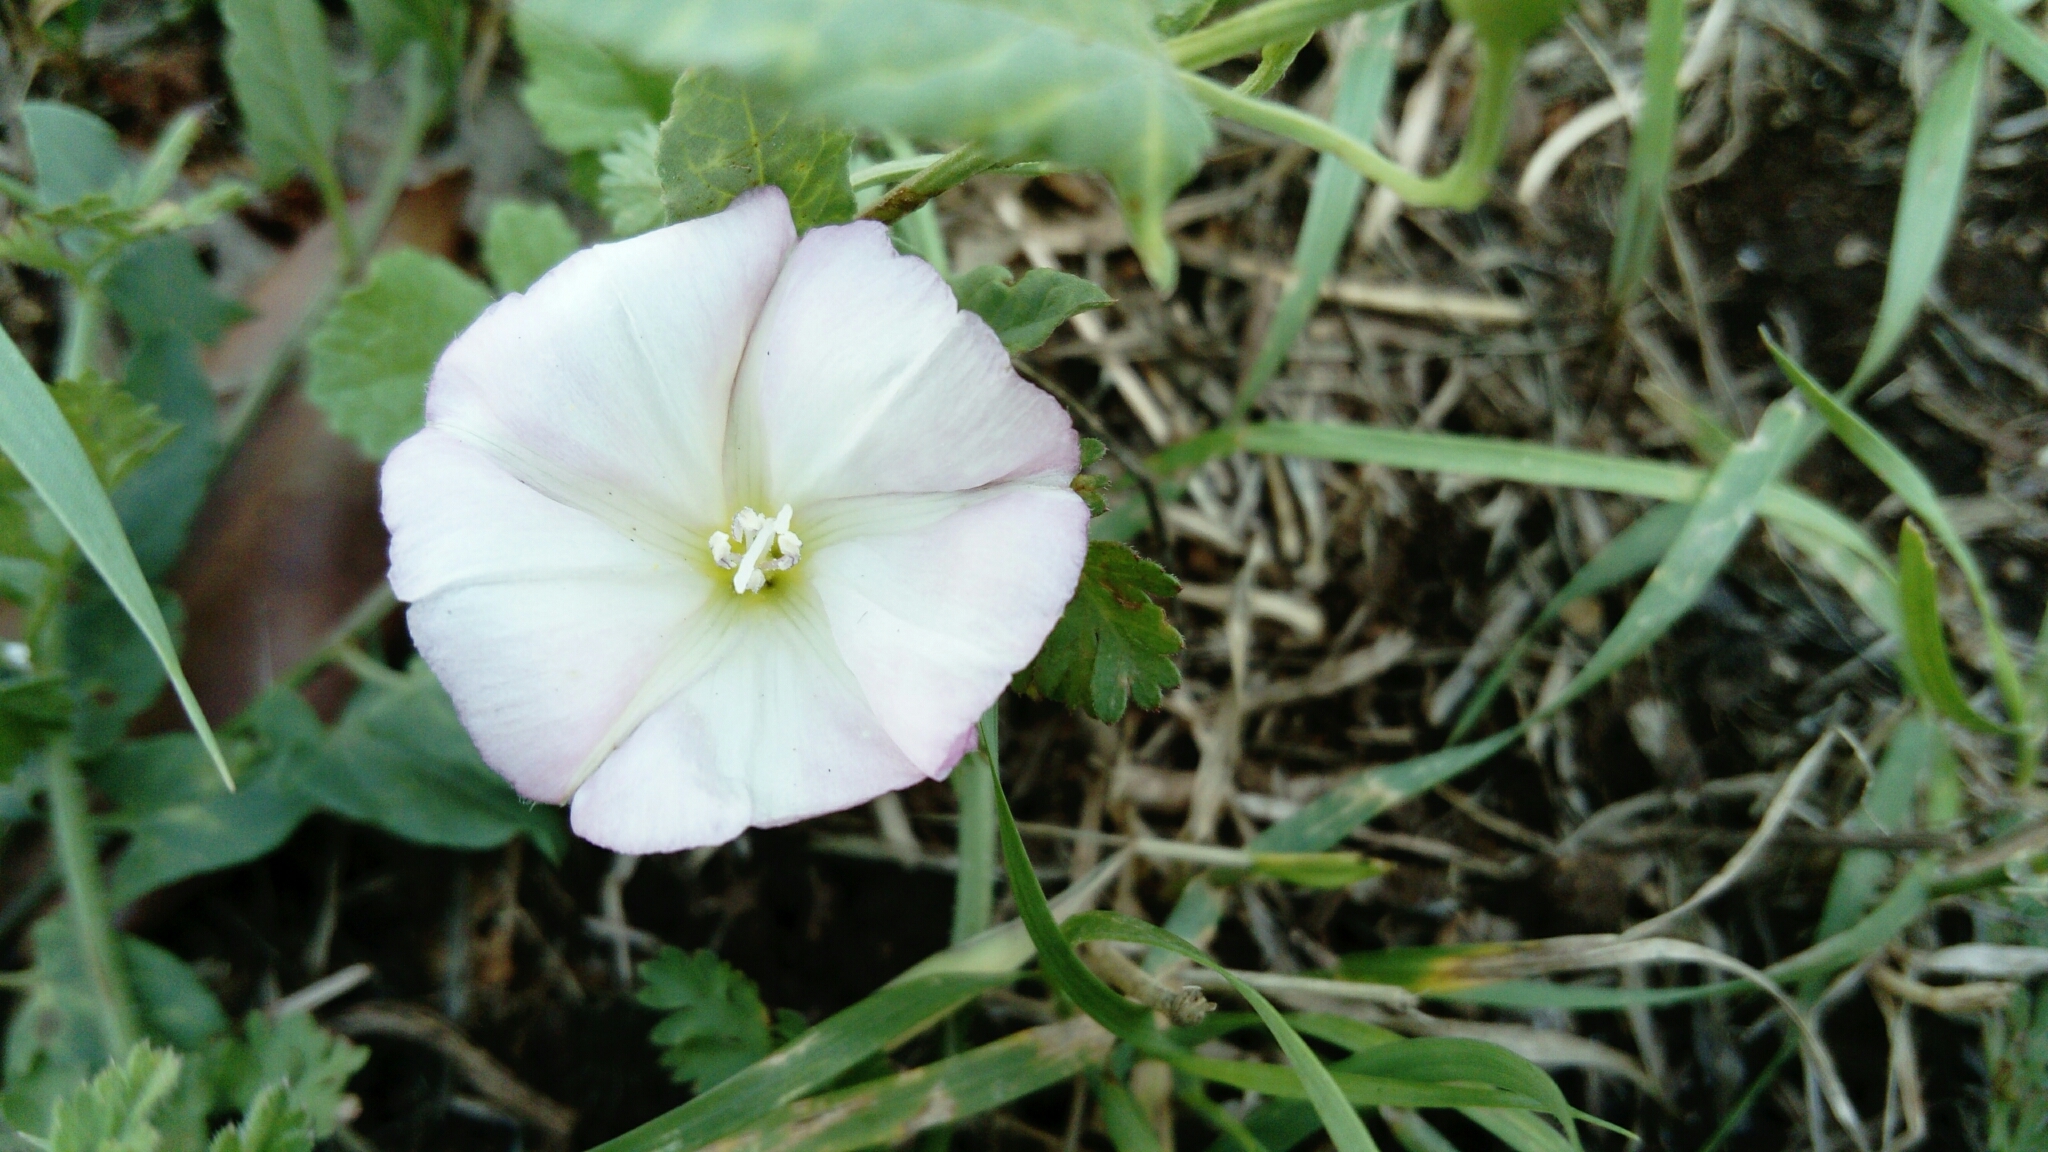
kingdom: Plantae
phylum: Tracheophyta
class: Magnoliopsida
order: Solanales
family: Convolvulaceae
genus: Convolvulus
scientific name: Convolvulus arvensis
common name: Field bindweed
